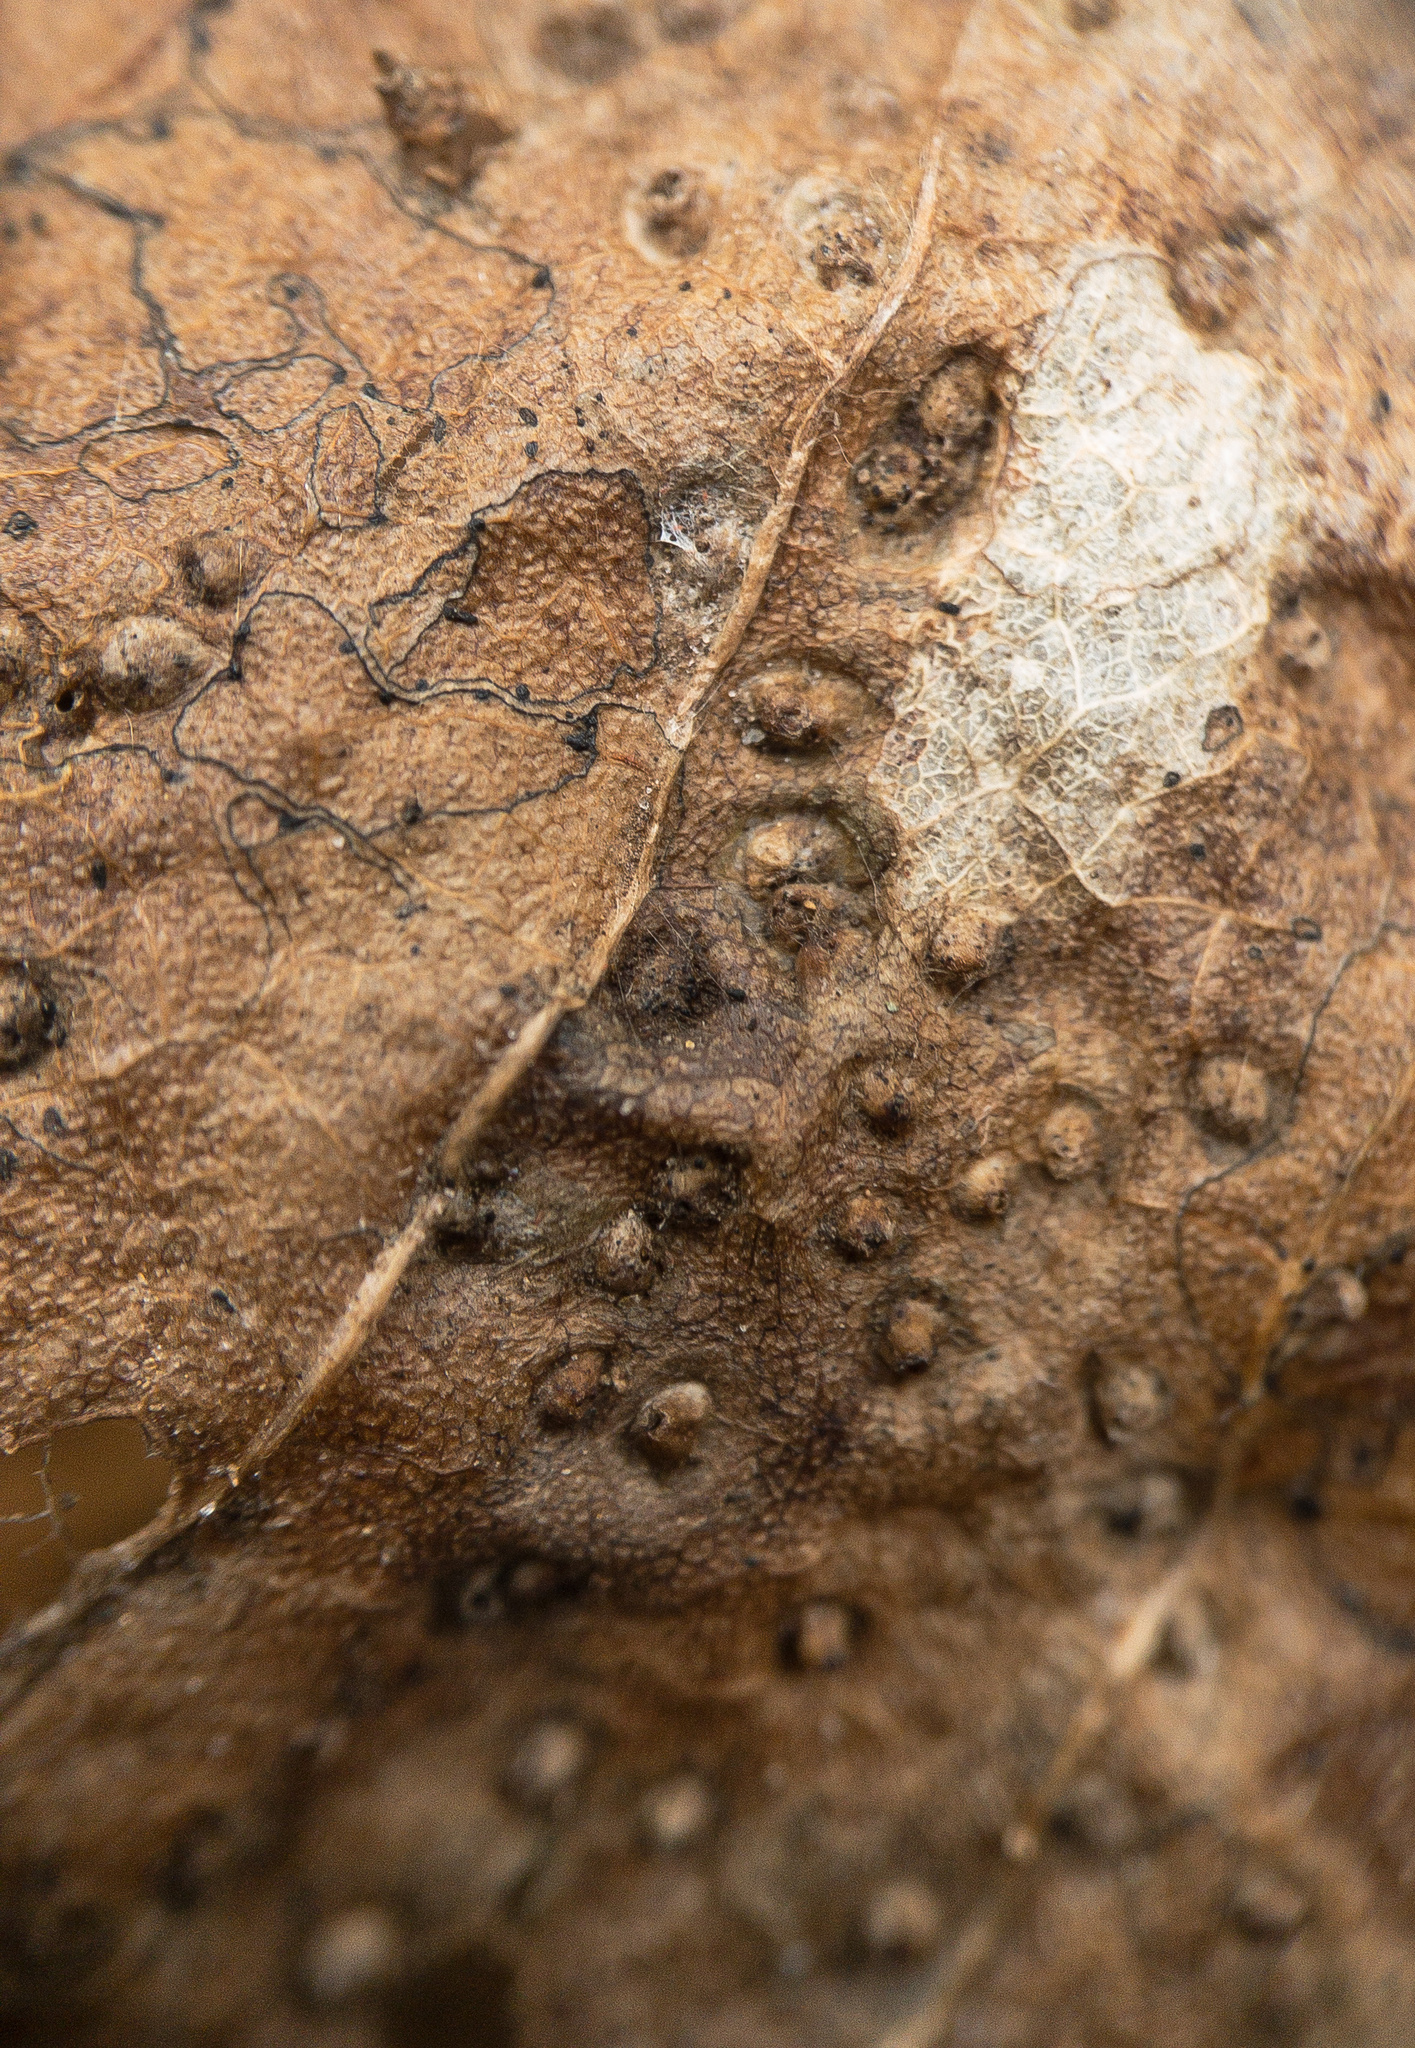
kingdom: Animalia
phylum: Arthropoda
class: Arachnida
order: Trombidiformes
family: Eriophyidae
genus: Aceria
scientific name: Aceria
